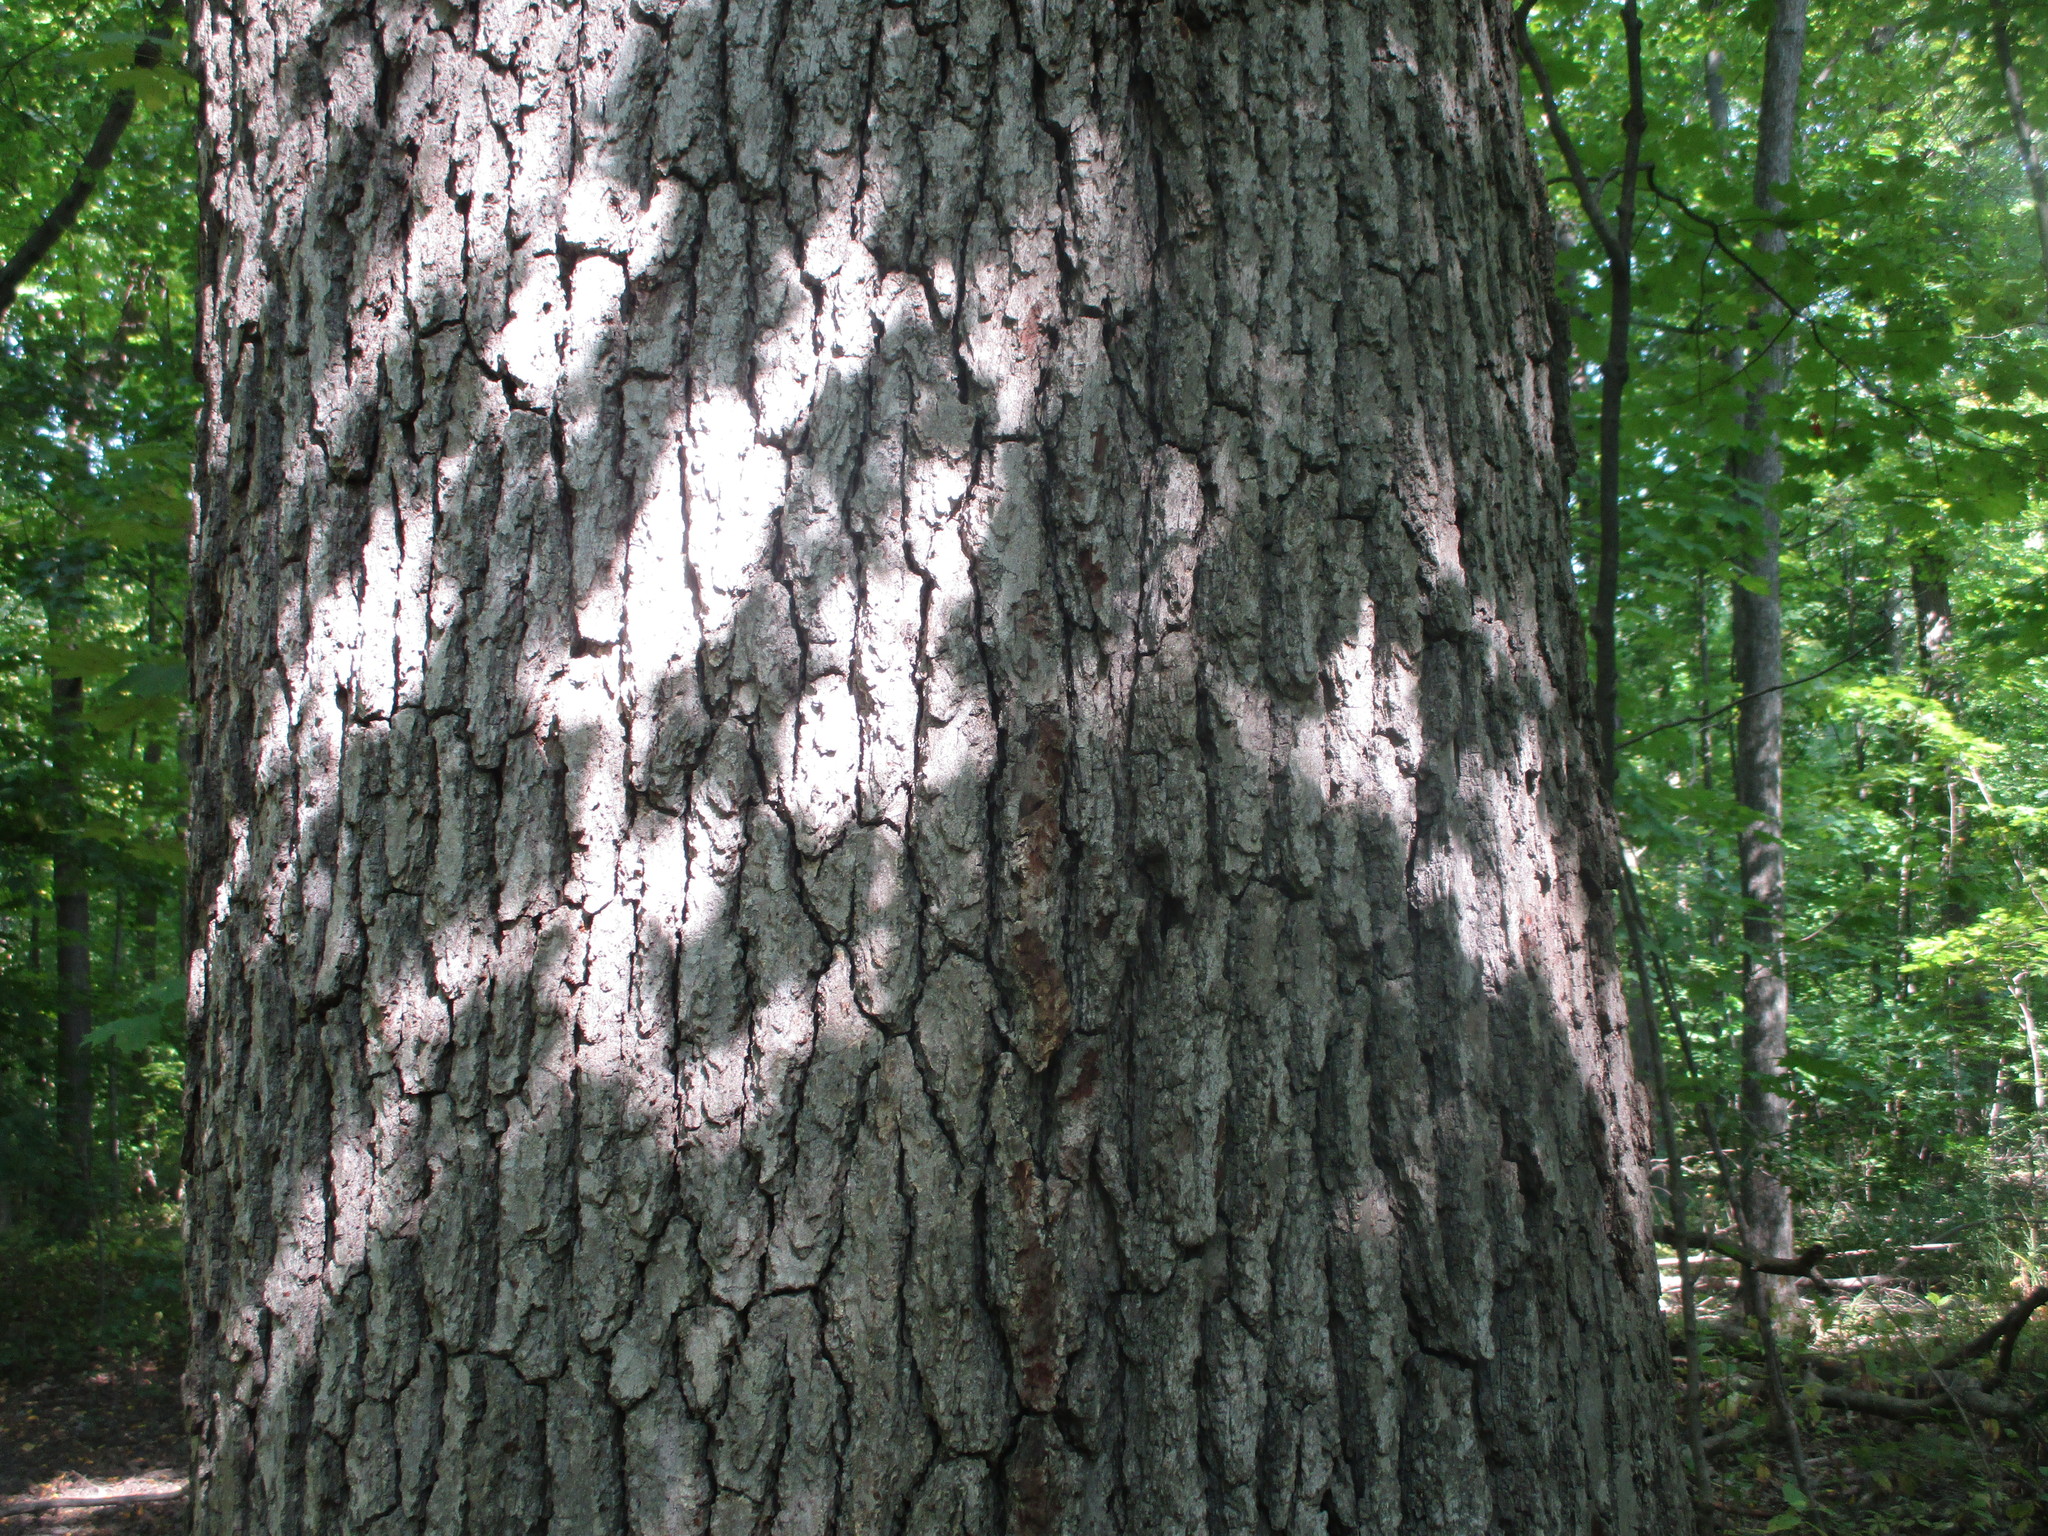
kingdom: Plantae
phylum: Tracheophyta
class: Magnoliopsida
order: Fagales
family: Fagaceae
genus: Quercus
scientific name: Quercus alba
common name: White oak
